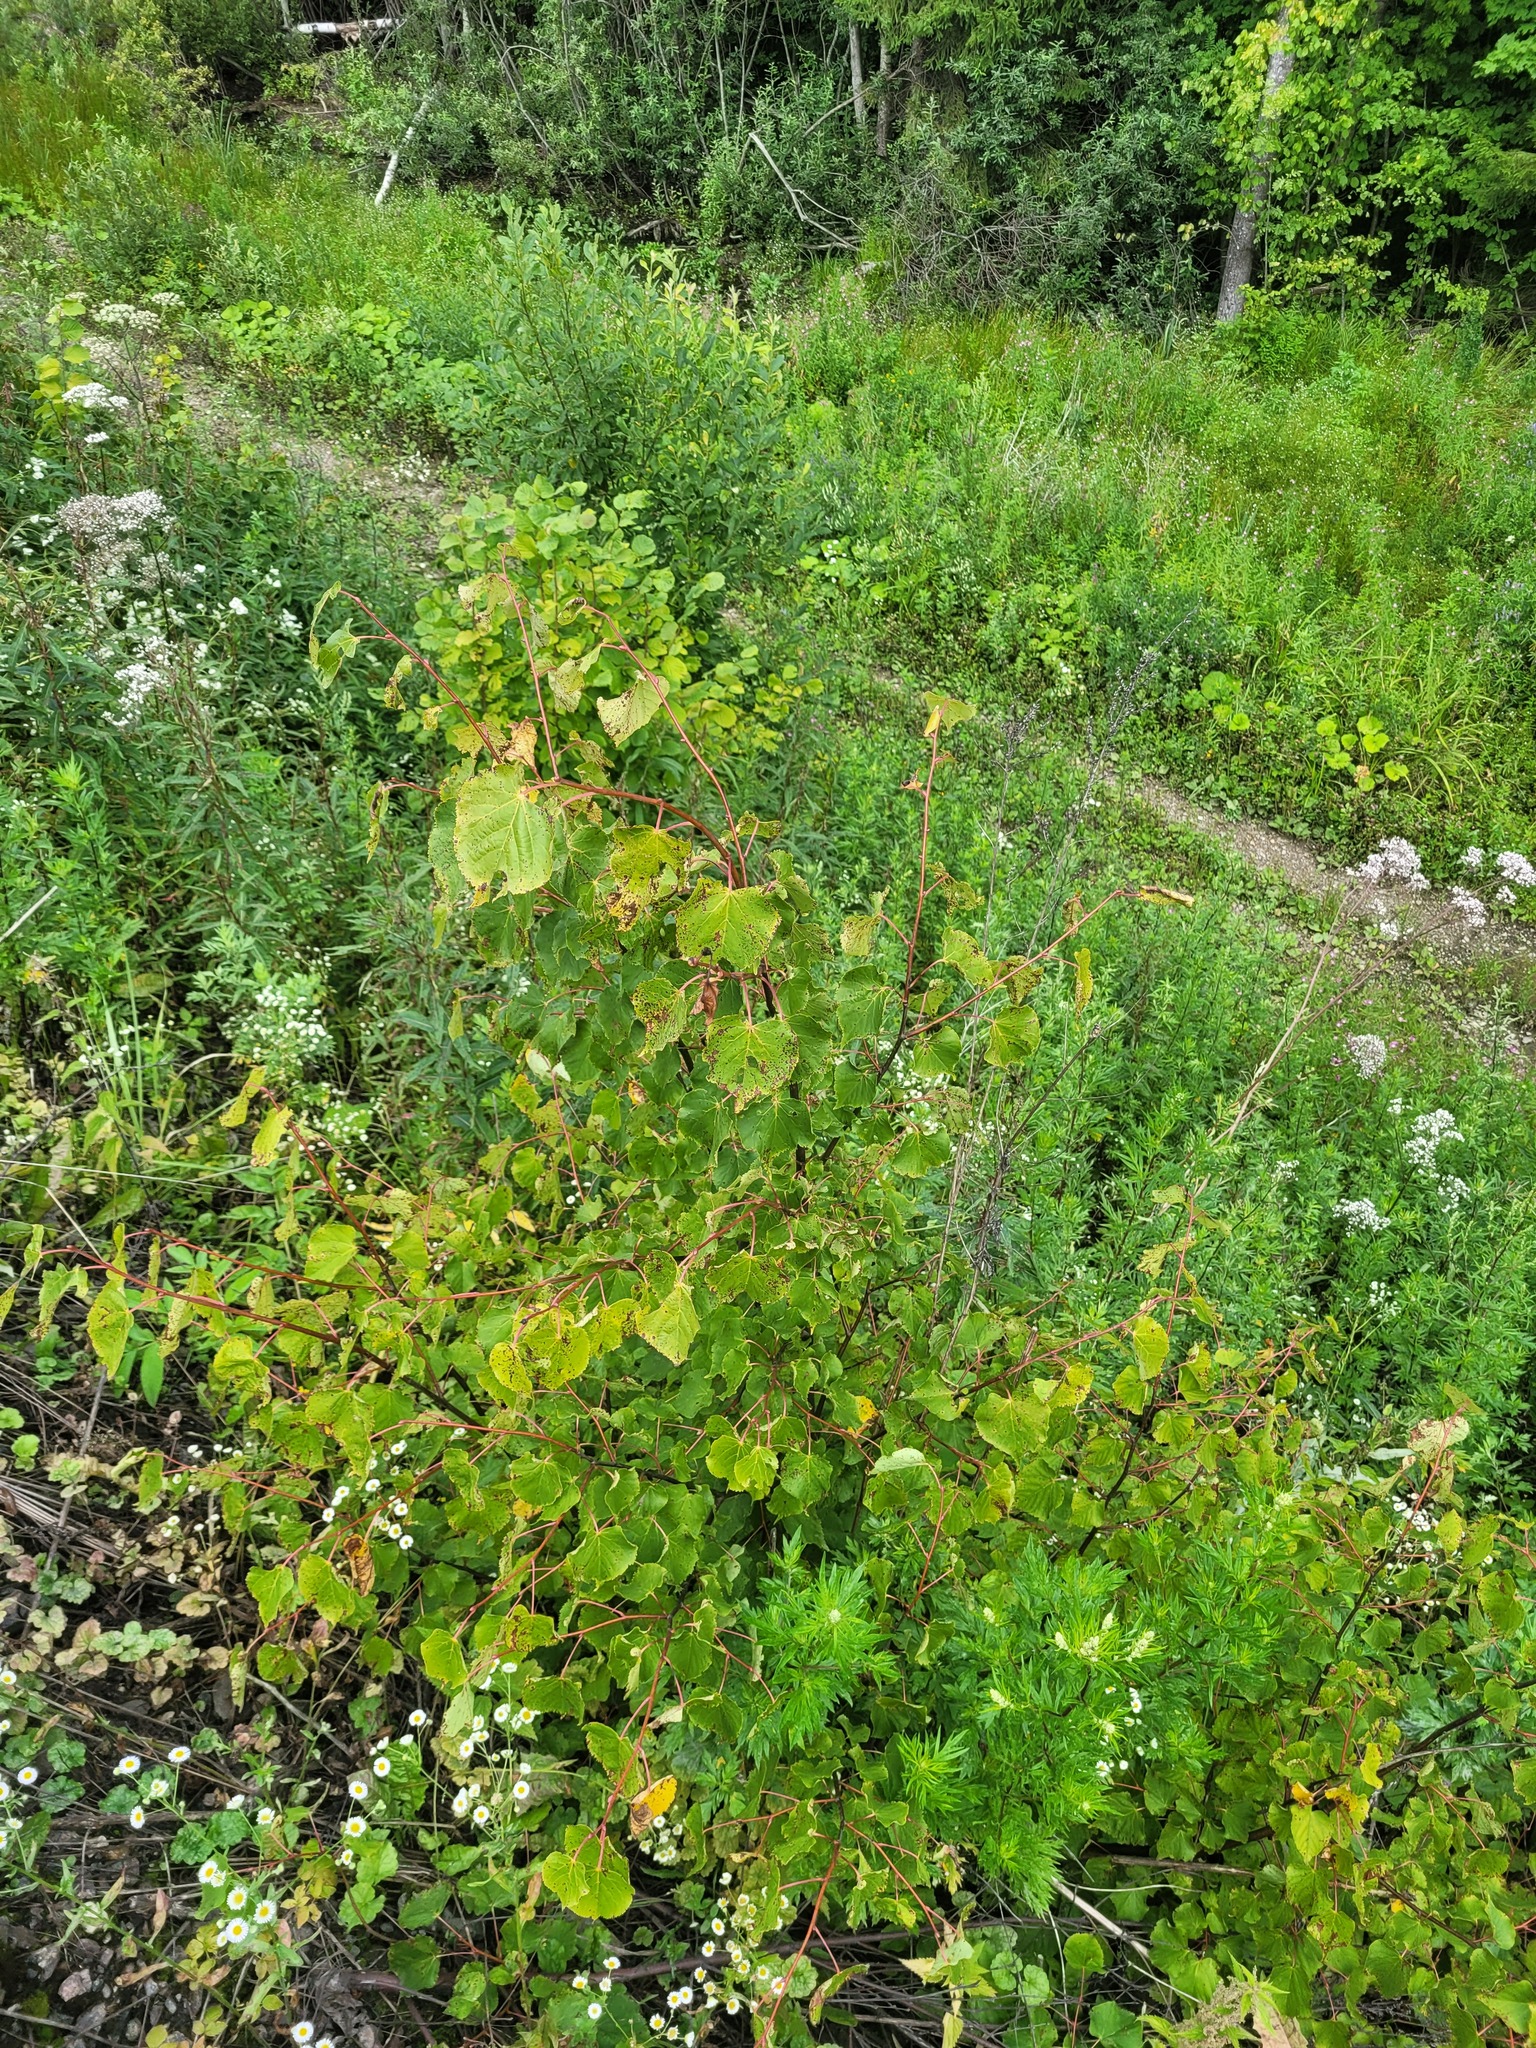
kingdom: Plantae
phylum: Tracheophyta
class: Magnoliopsida
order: Malvales
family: Malvaceae
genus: Tilia
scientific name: Tilia cordata
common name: Small-leaved lime
